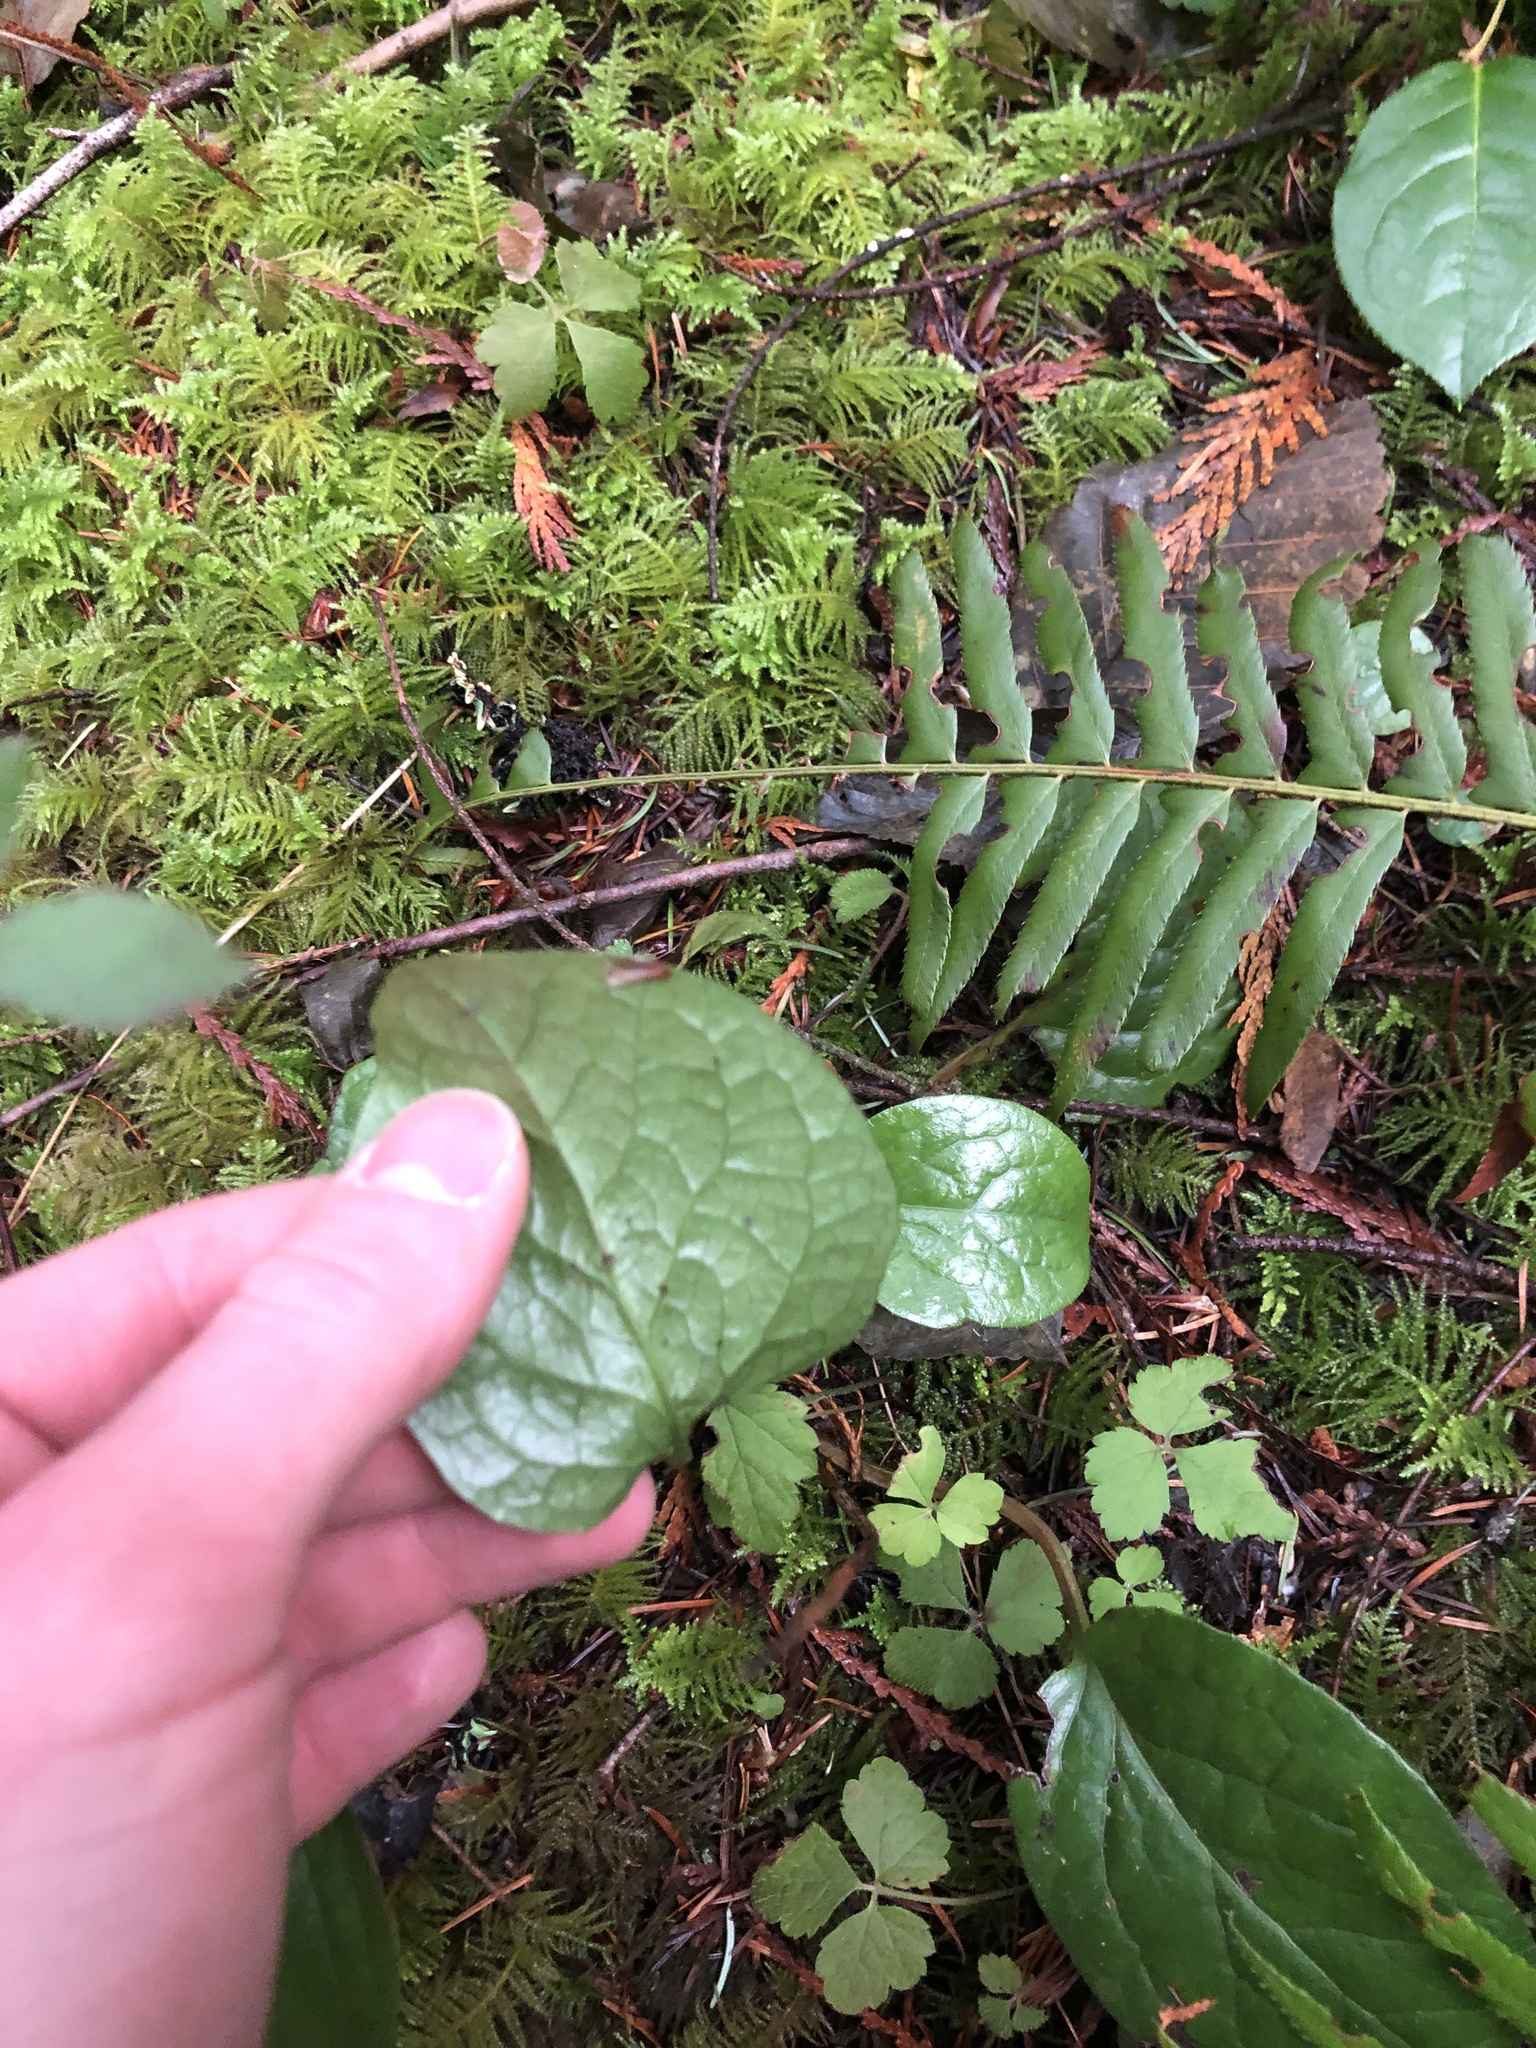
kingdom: Plantae
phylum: Tracheophyta
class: Magnoliopsida
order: Ericales
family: Ericaceae
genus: Pyrola
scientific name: Pyrola asarifolia
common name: Bog wintergreen
